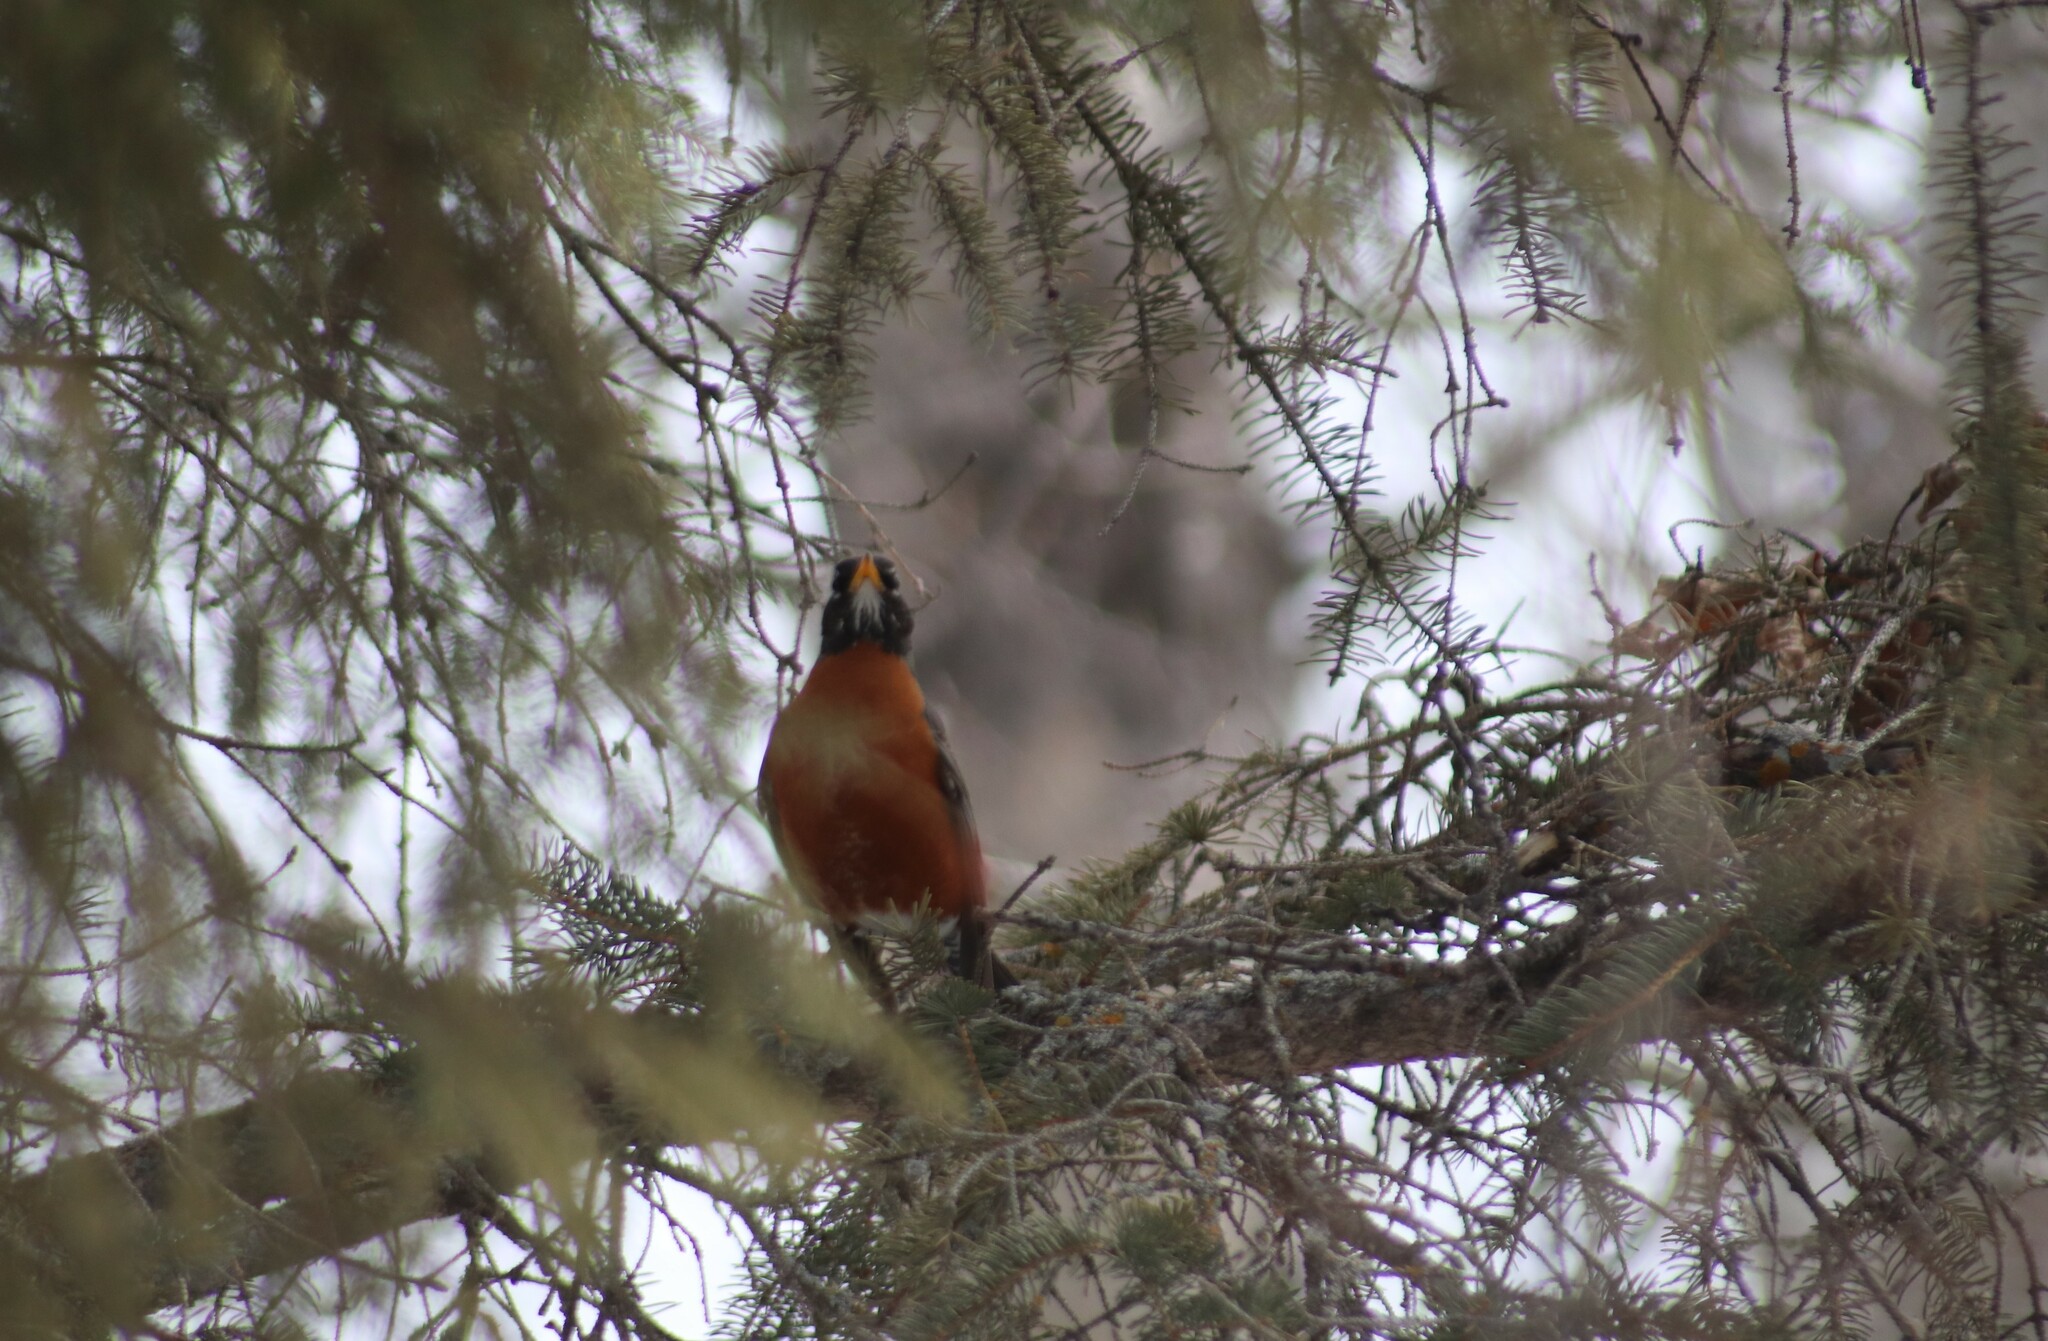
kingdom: Animalia
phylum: Chordata
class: Aves
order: Passeriformes
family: Turdidae
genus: Turdus
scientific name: Turdus migratorius
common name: American robin
